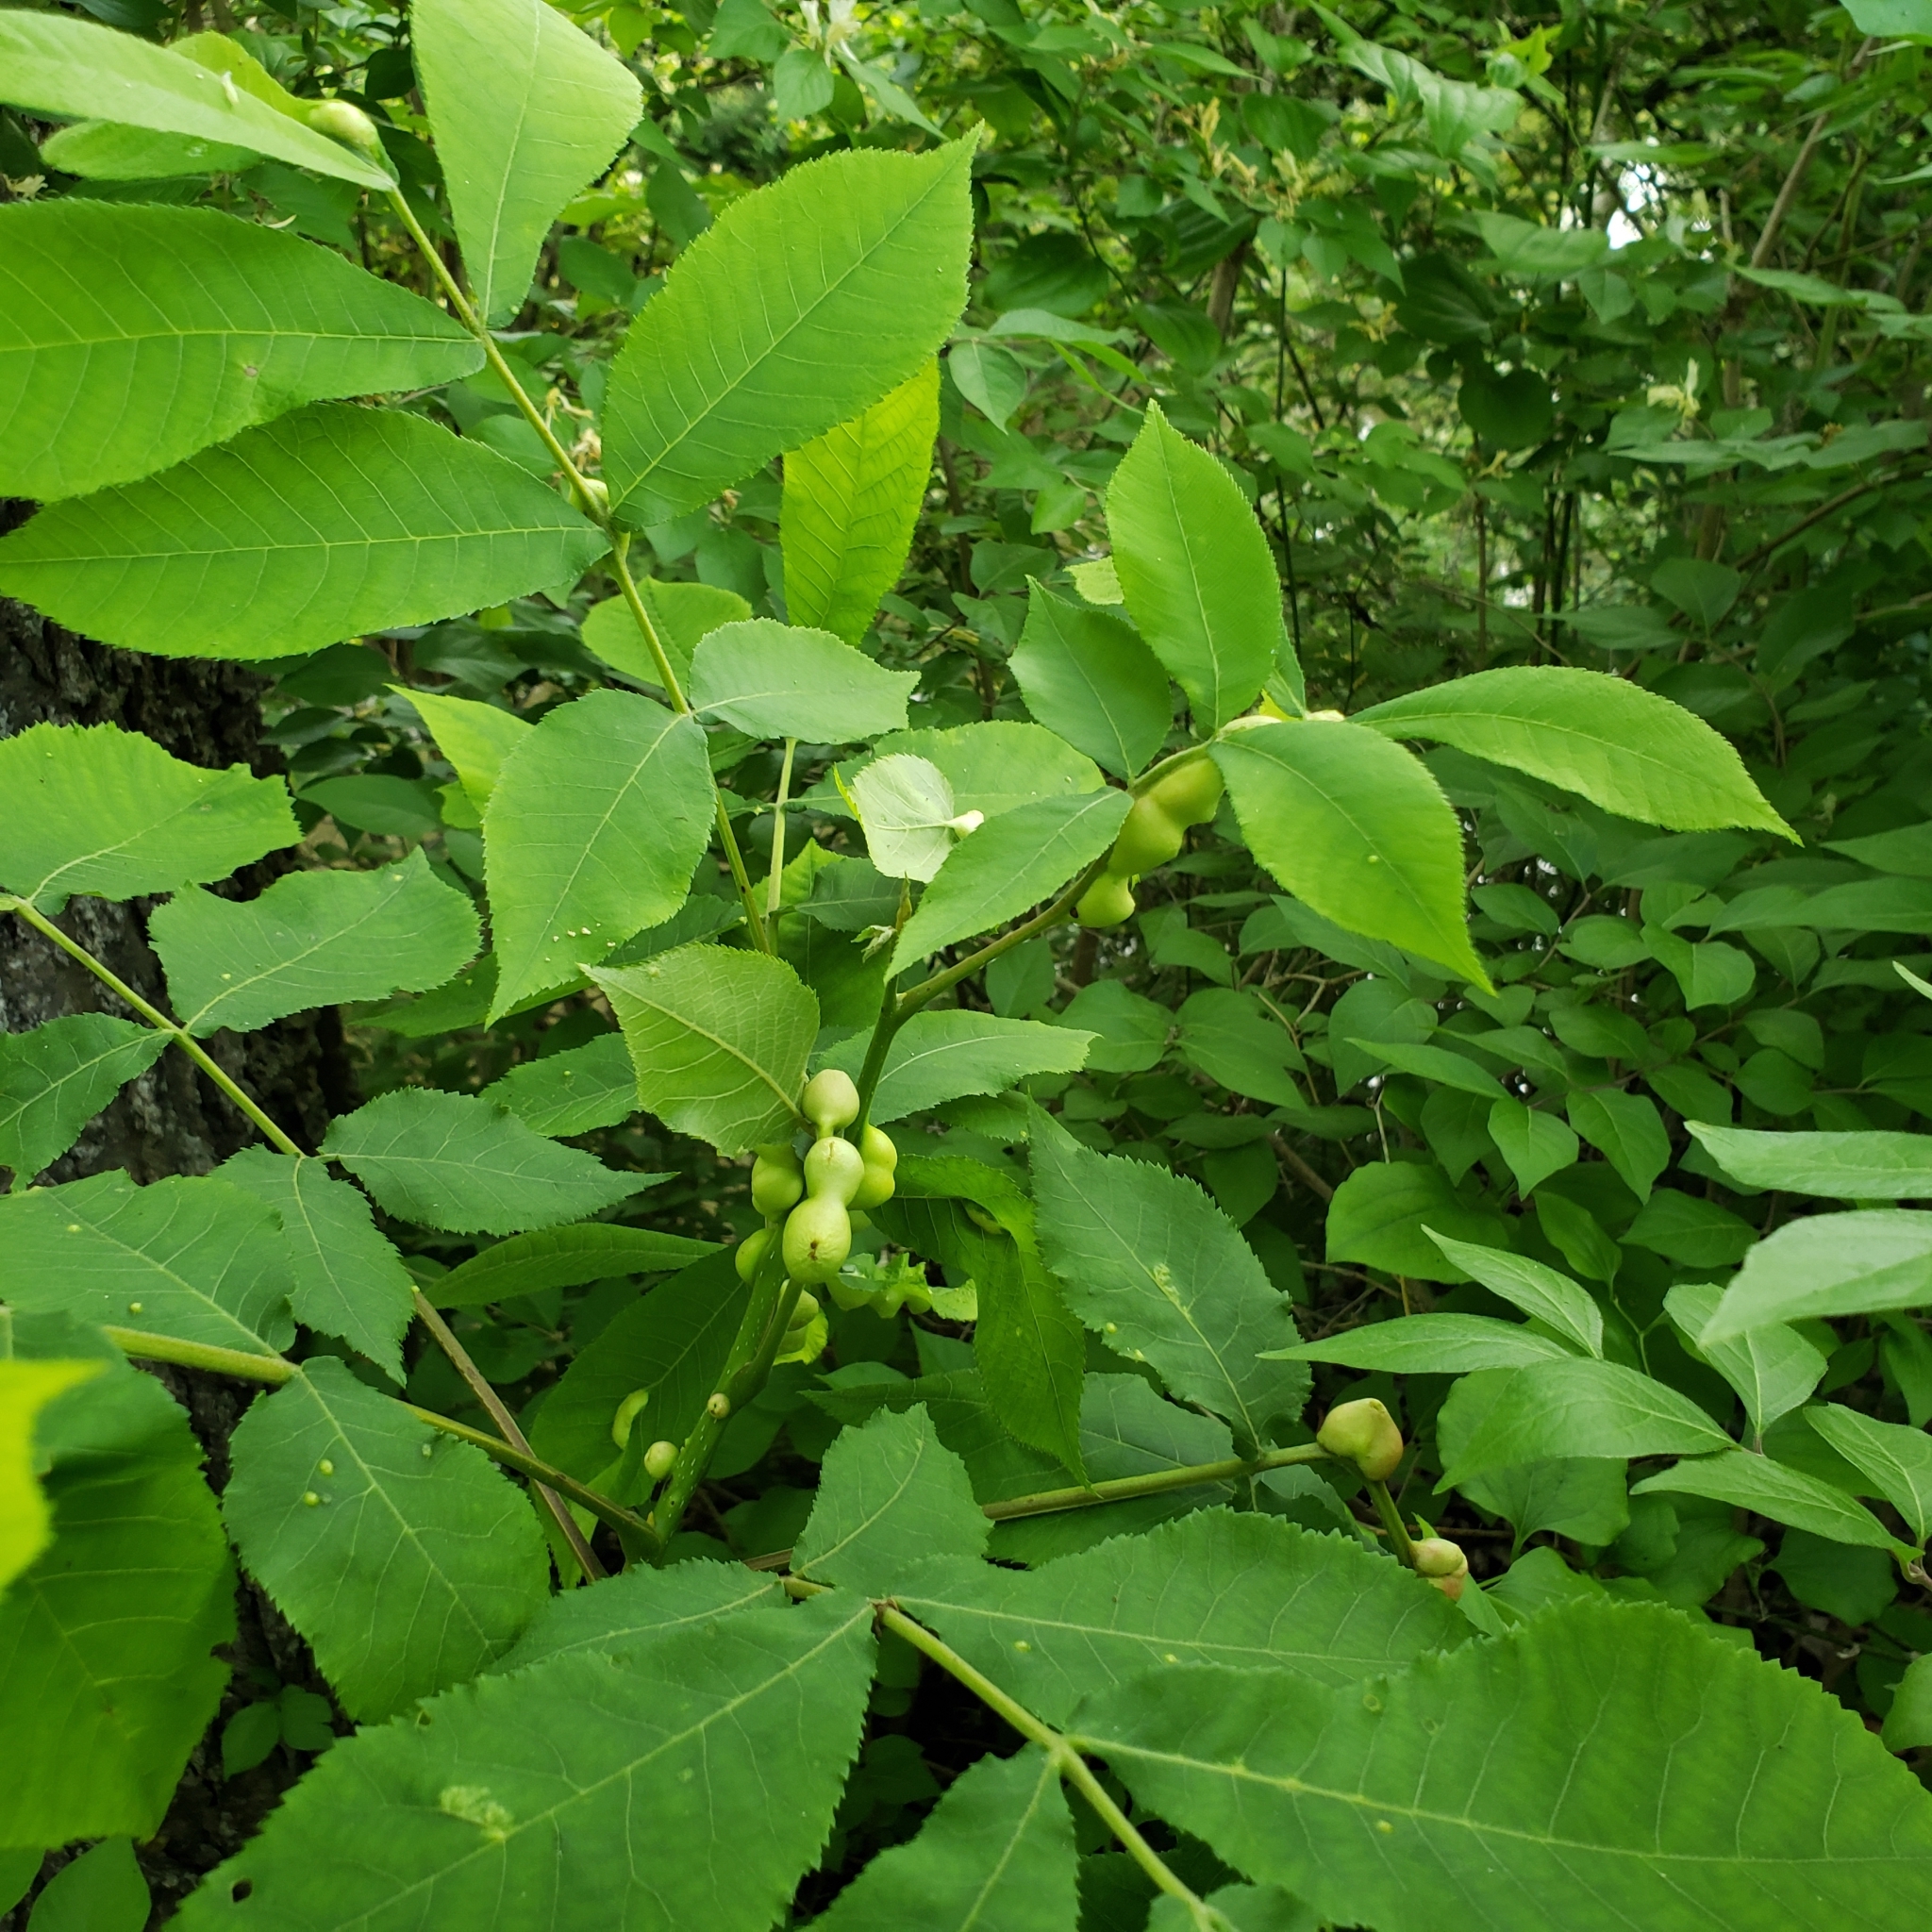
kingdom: Animalia
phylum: Arthropoda
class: Insecta
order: Hemiptera
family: Phylloxeridae
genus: Phylloxera
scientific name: Phylloxera caryaecaulis
